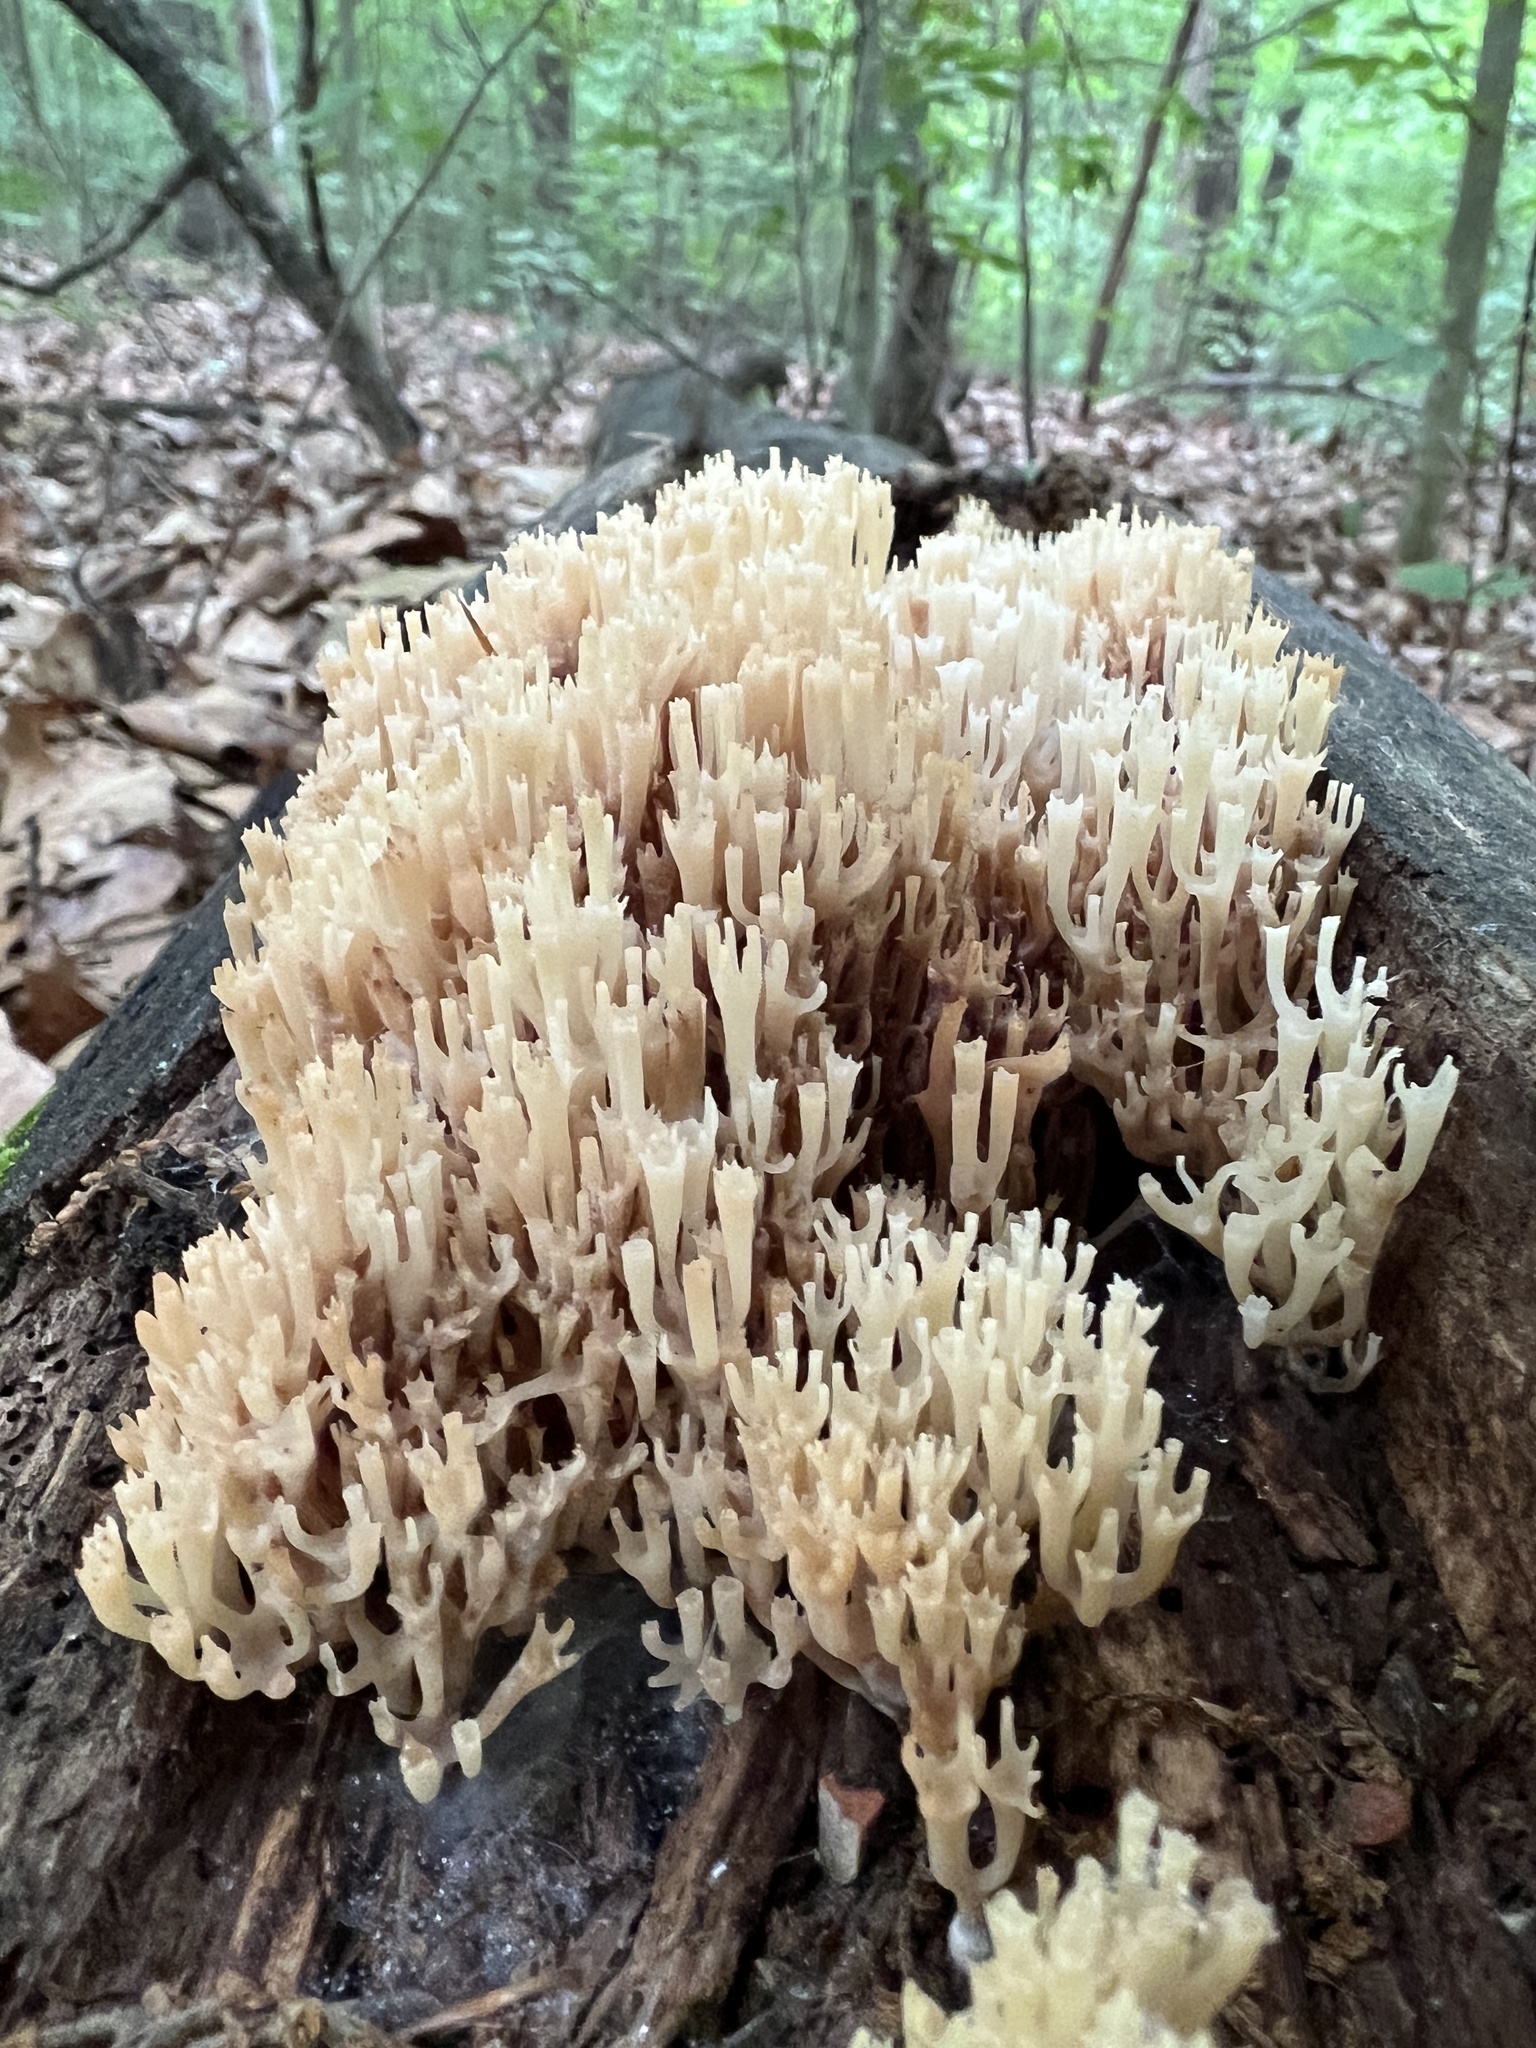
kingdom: Fungi
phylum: Basidiomycota
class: Agaricomycetes
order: Russulales
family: Auriscalpiaceae
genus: Artomyces
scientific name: Artomyces pyxidatus
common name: Crown-tipped coral fungus
